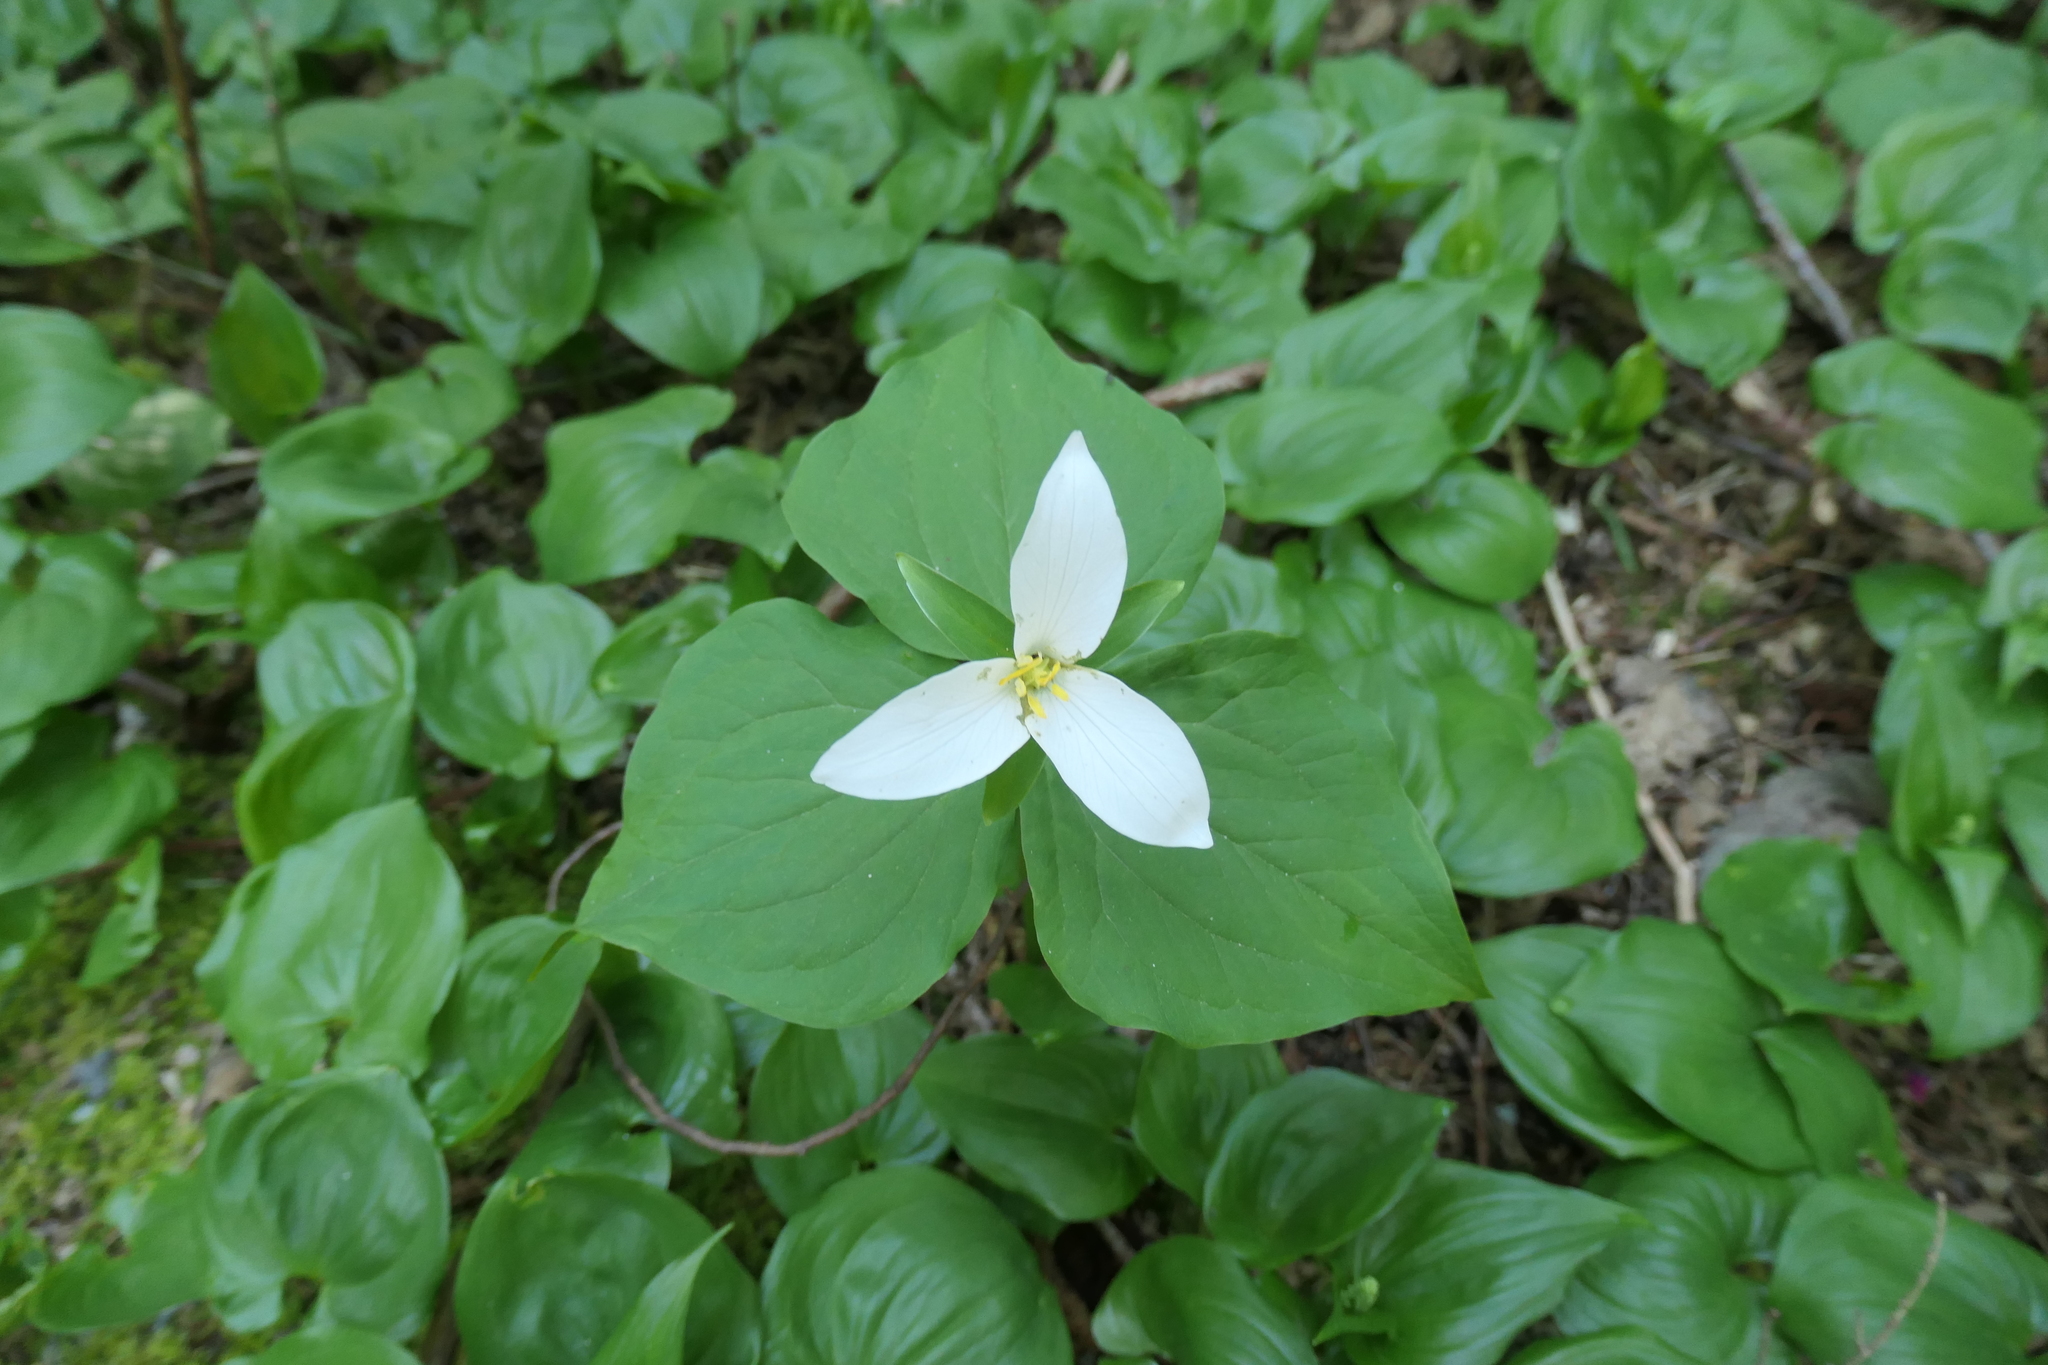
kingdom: Plantae
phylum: Tracheophyta
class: Liliopsida
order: Liliales
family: Melanthiaceae
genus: Trillium
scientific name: Trillium ovatum
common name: Pacific trillium
